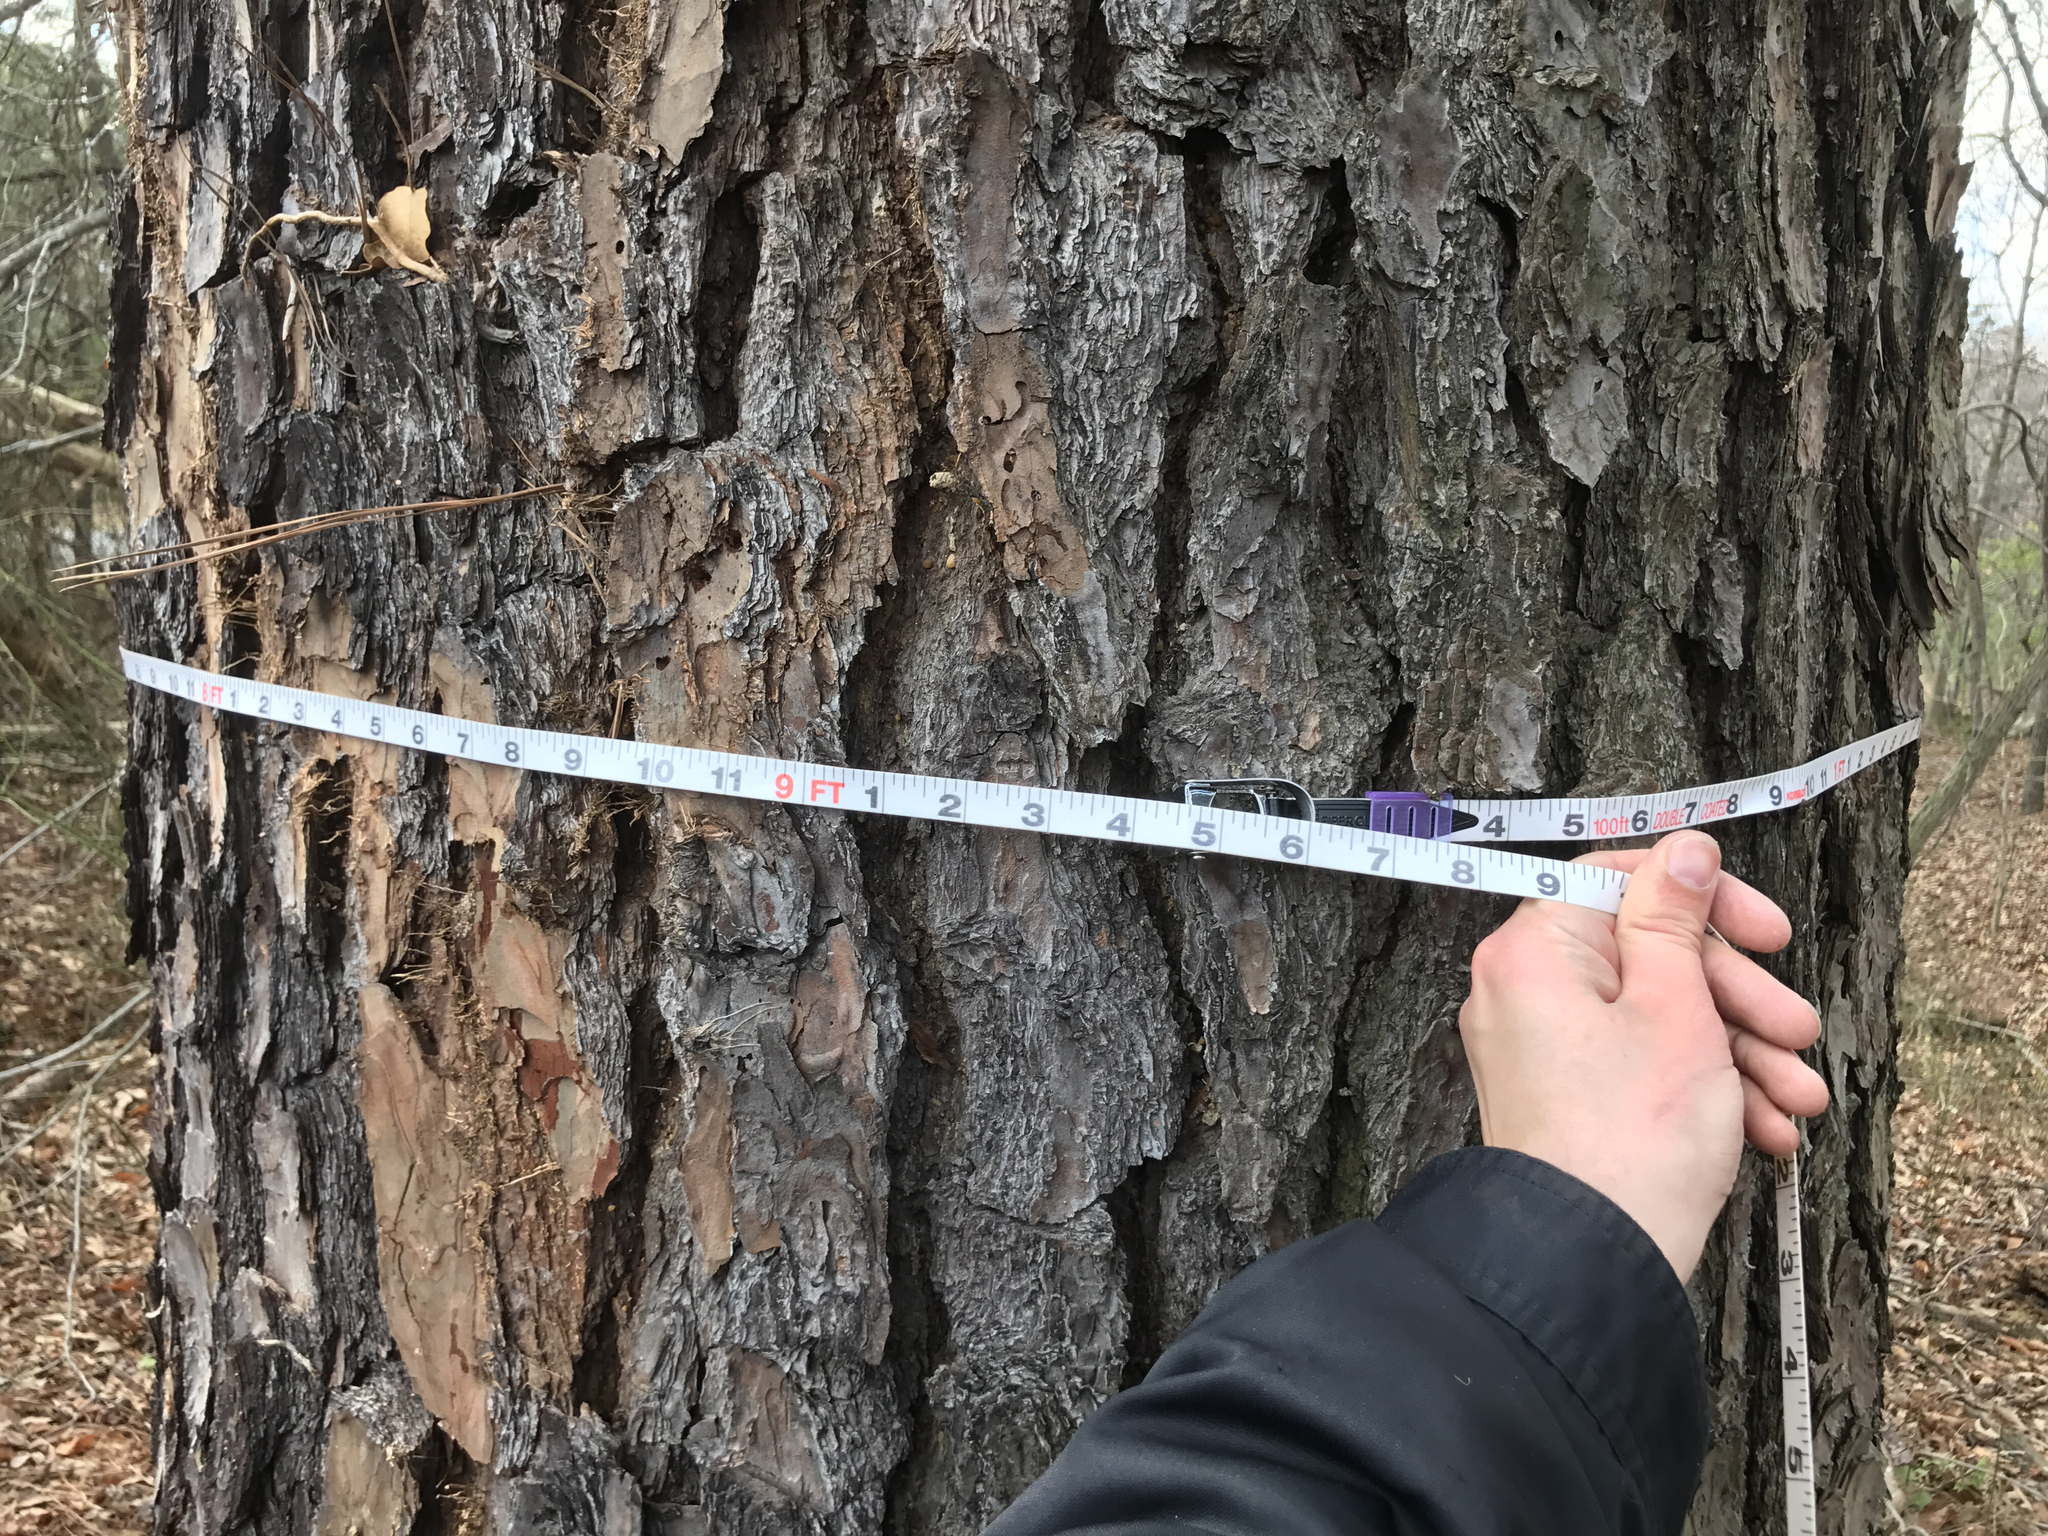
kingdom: Plantae
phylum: Tracheophyta
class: Pinopsida
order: Pinales
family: Pinaceae
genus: Pinus
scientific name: Pinus rigida
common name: Pitch pine
